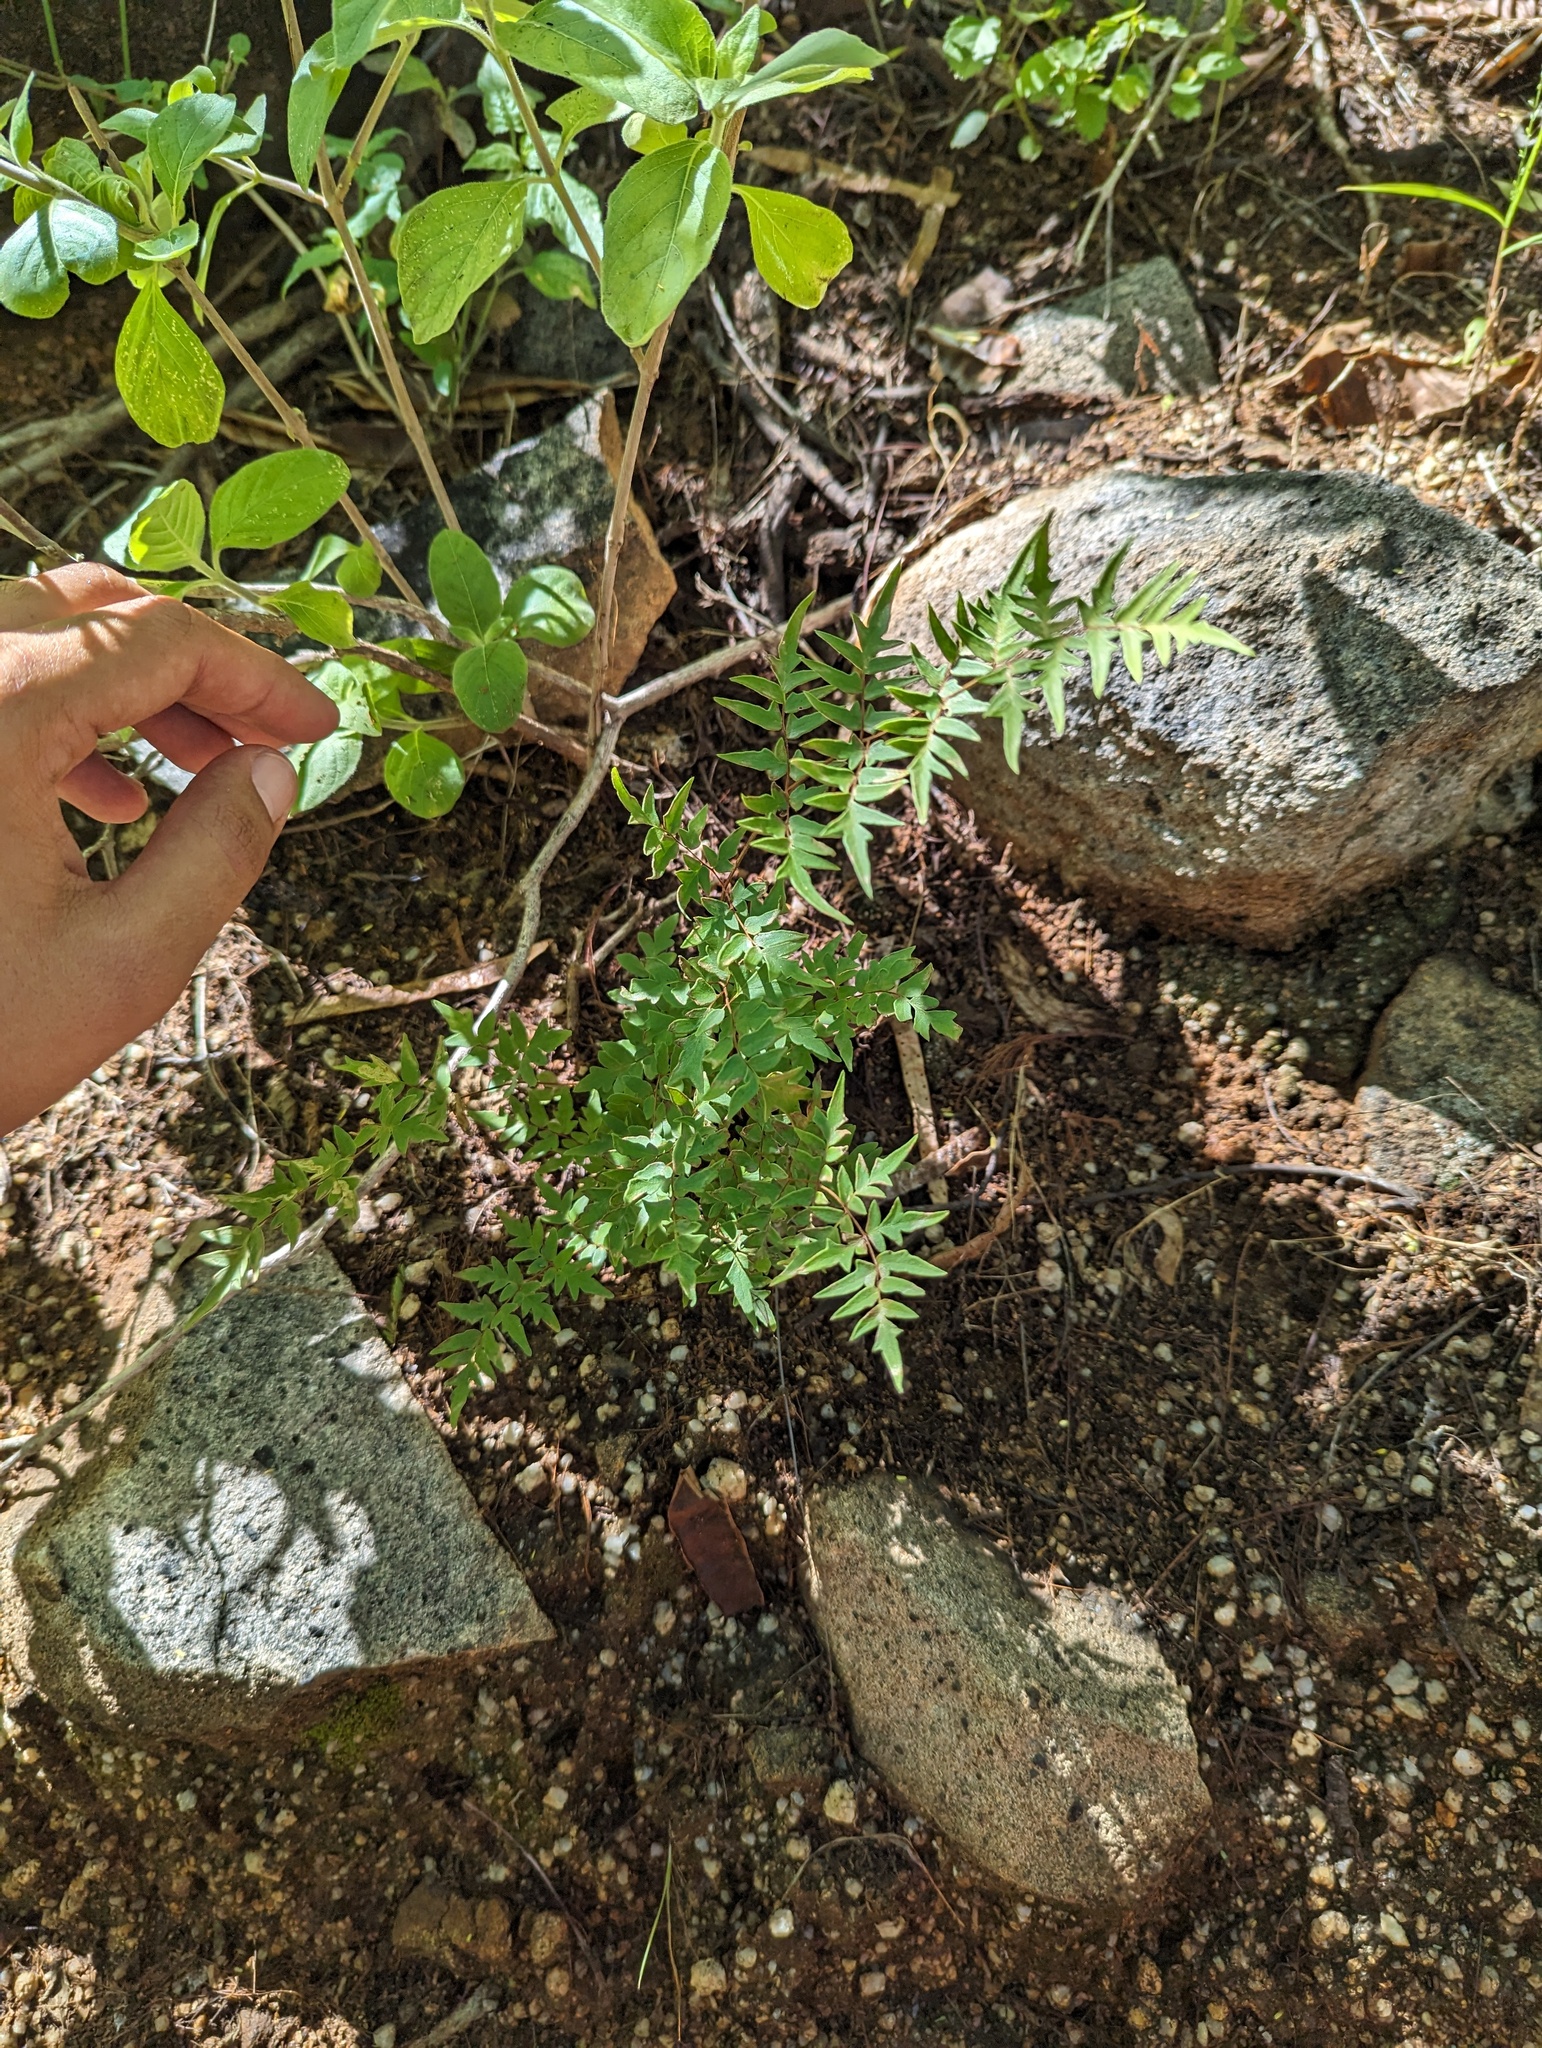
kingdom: Plantae
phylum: Tracheophyta
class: Polypodiopsida
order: Polypodiales
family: Pteridaceae
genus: Cheilanthes
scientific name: Cheilanthes lozanoi
